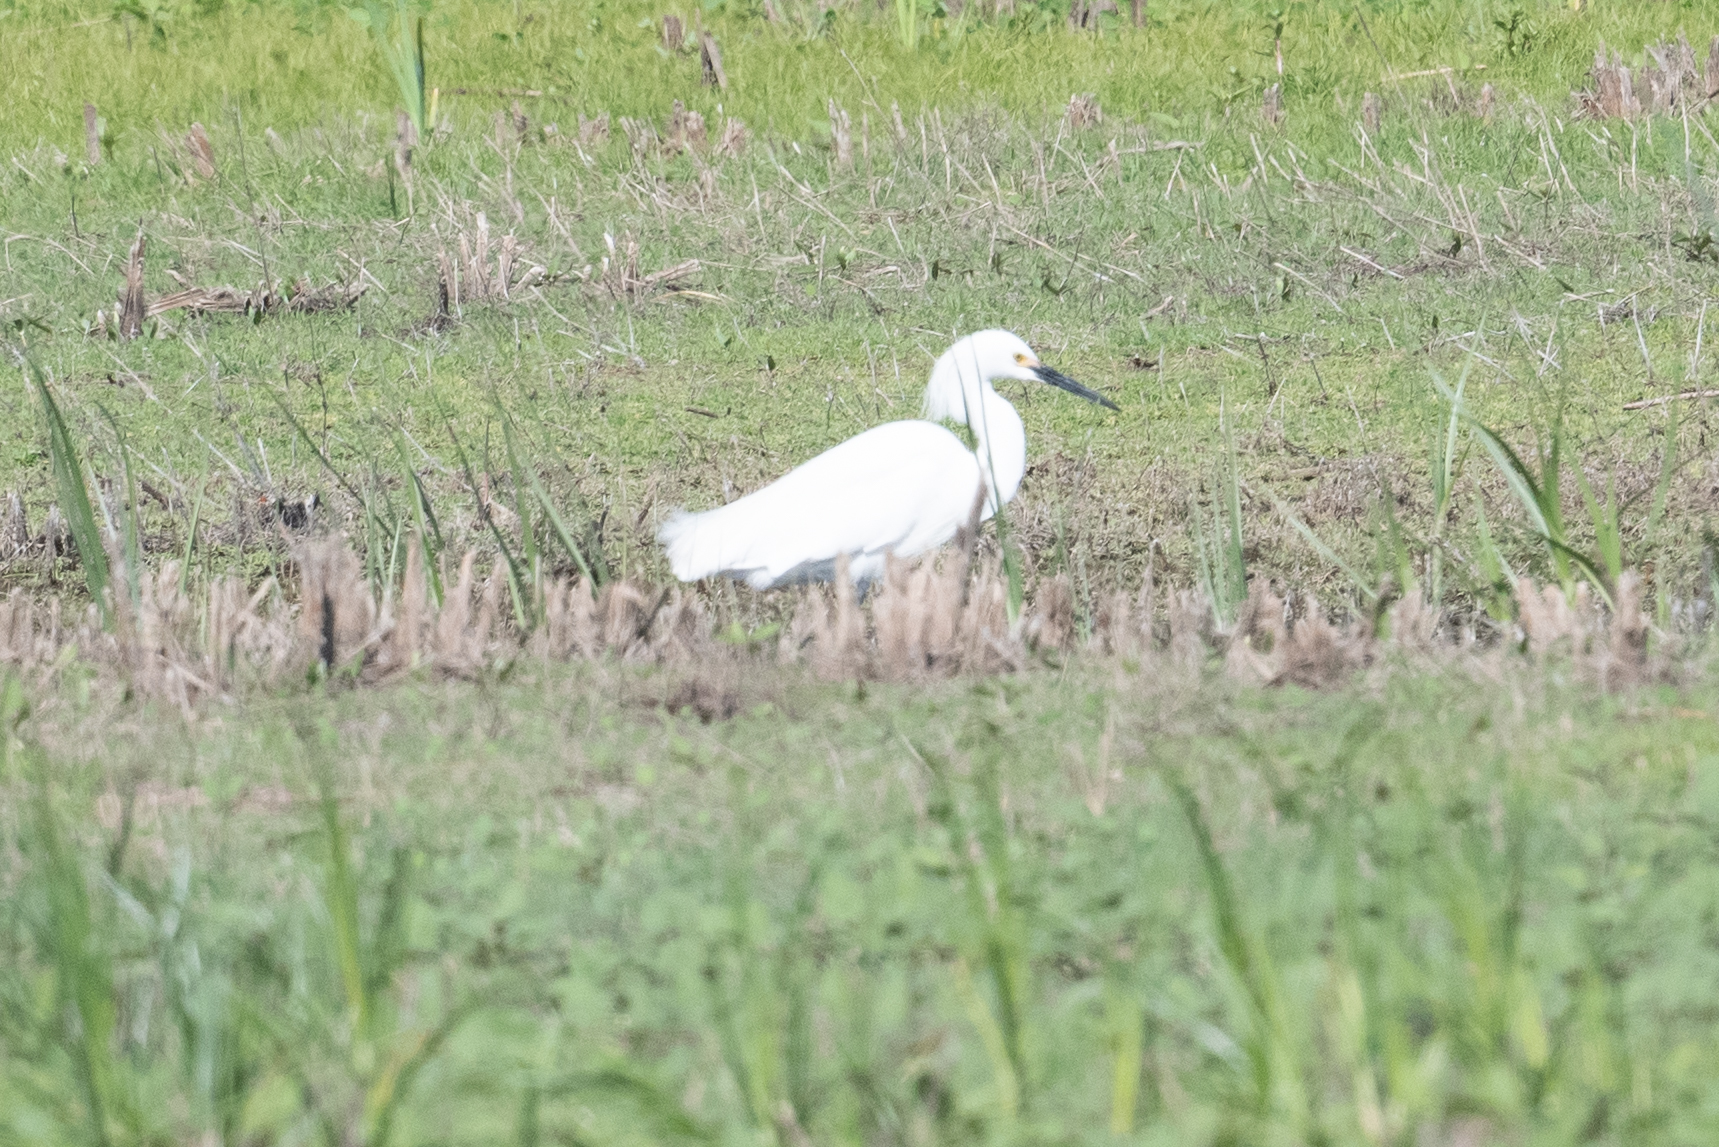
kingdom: Animalia
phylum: Chordata
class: Aves
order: Pelecaniformes
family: Ardeidae
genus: Egretta
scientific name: Egretta thula
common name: Snowy egret
